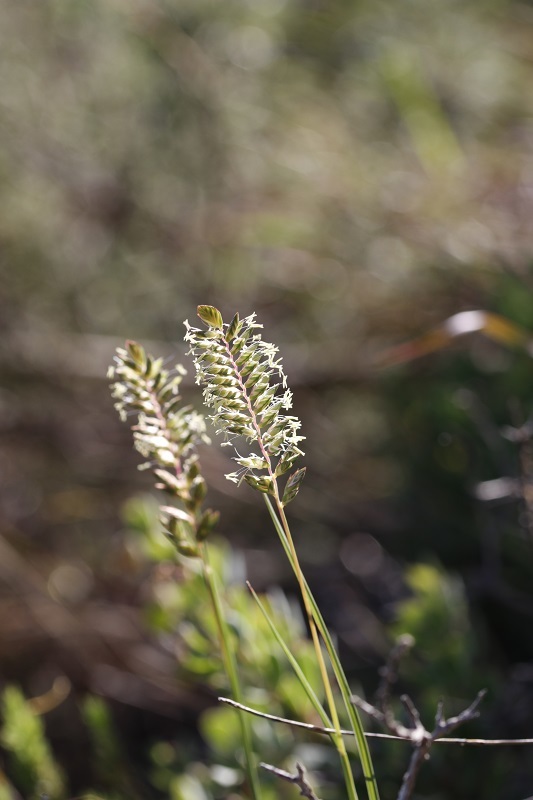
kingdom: Plantae
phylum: Tracheophyta
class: Liliopsida
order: Poales
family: Poaceae
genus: Tribolium
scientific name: Tribolium uniolae
